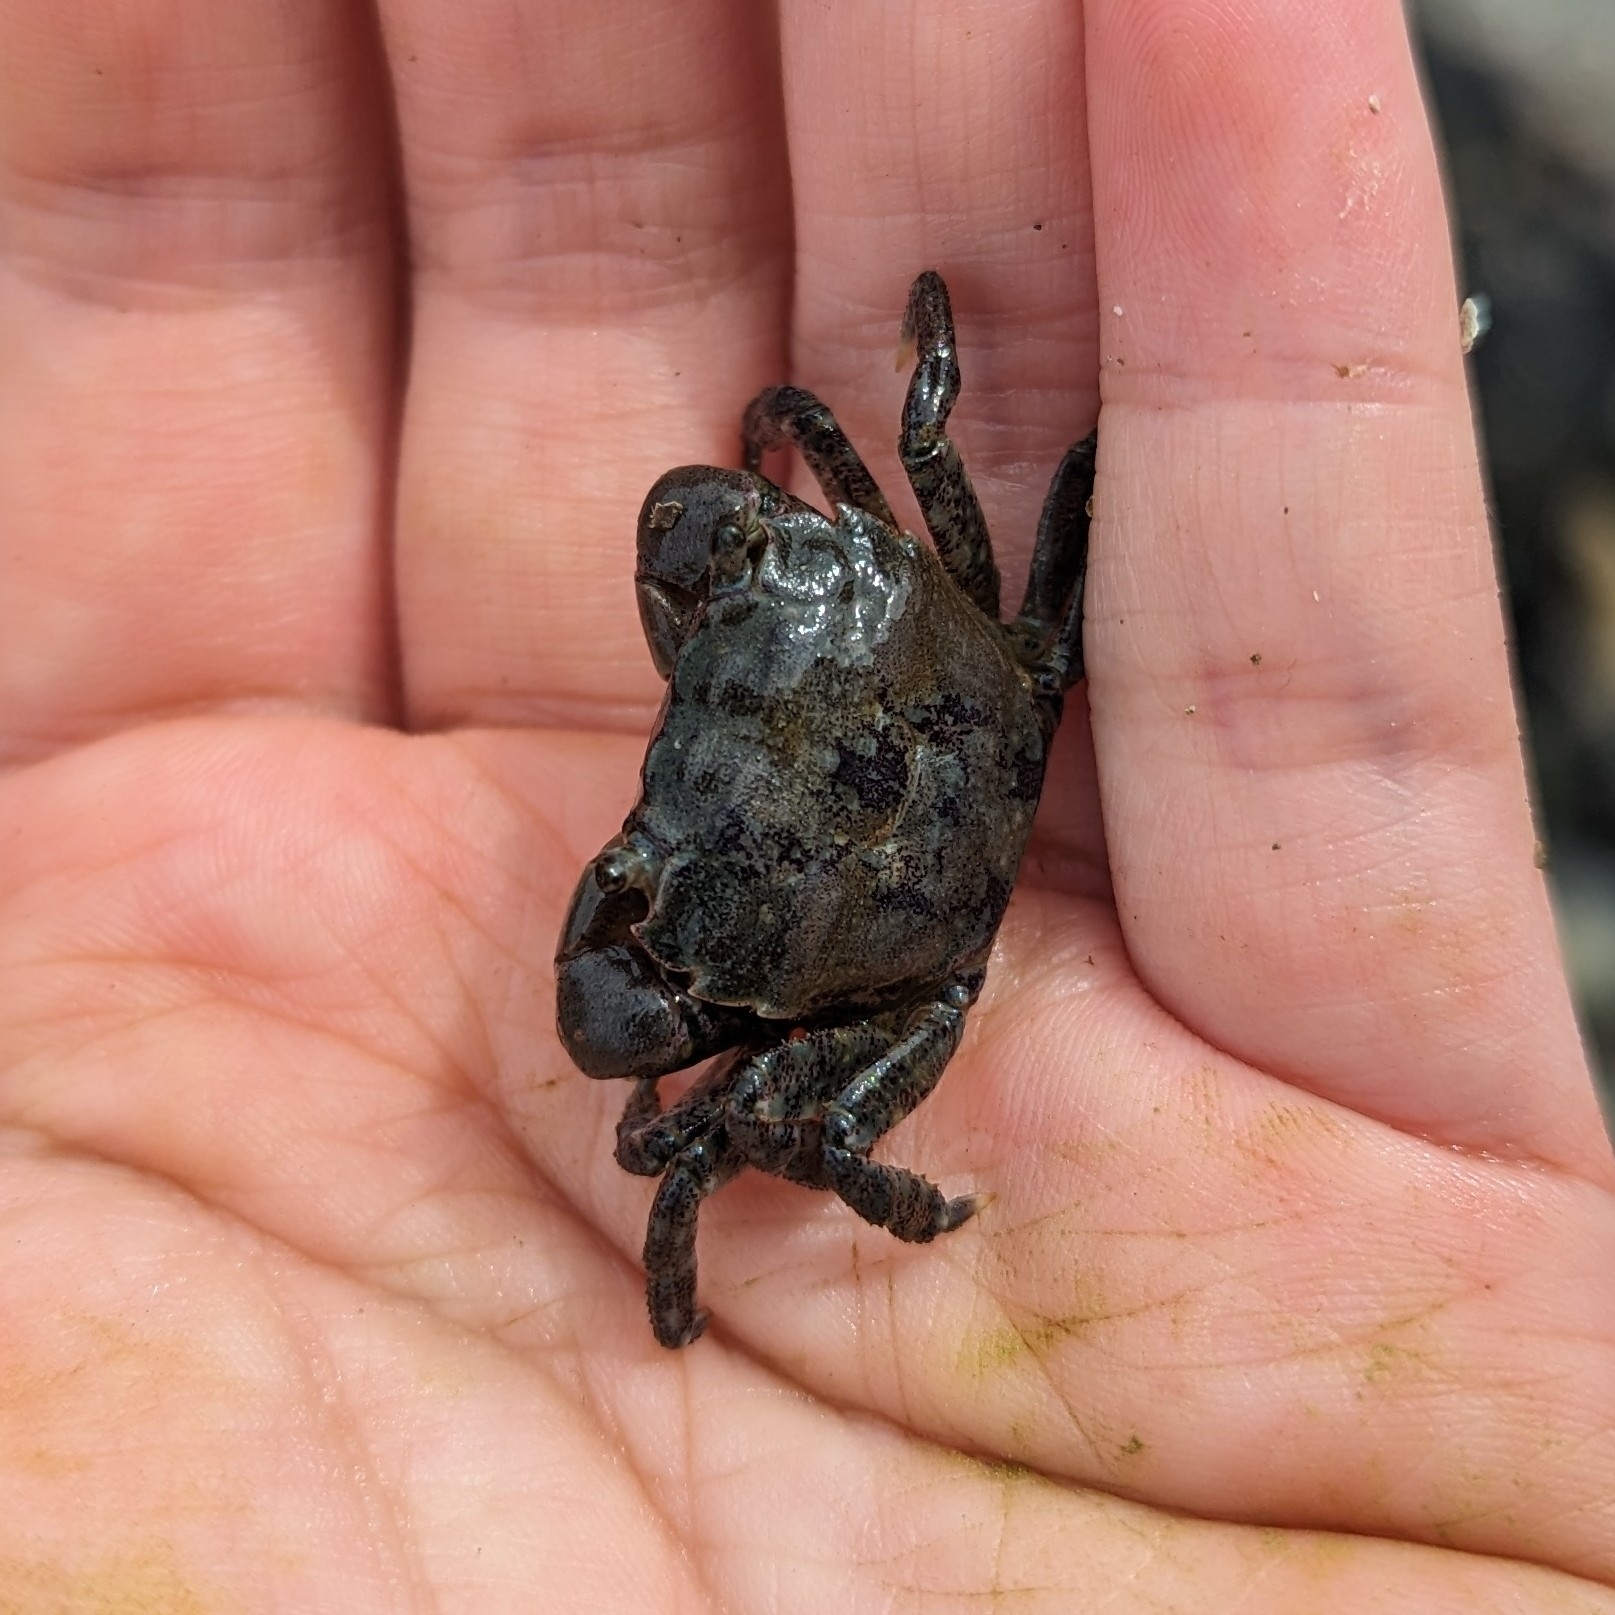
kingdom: Animalia
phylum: Arthropoda
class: Malacostraca
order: Decapoda
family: Varunidae
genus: Hemigrapsus
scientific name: Hemigrapsus oregonensis
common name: Yellow shore crab
